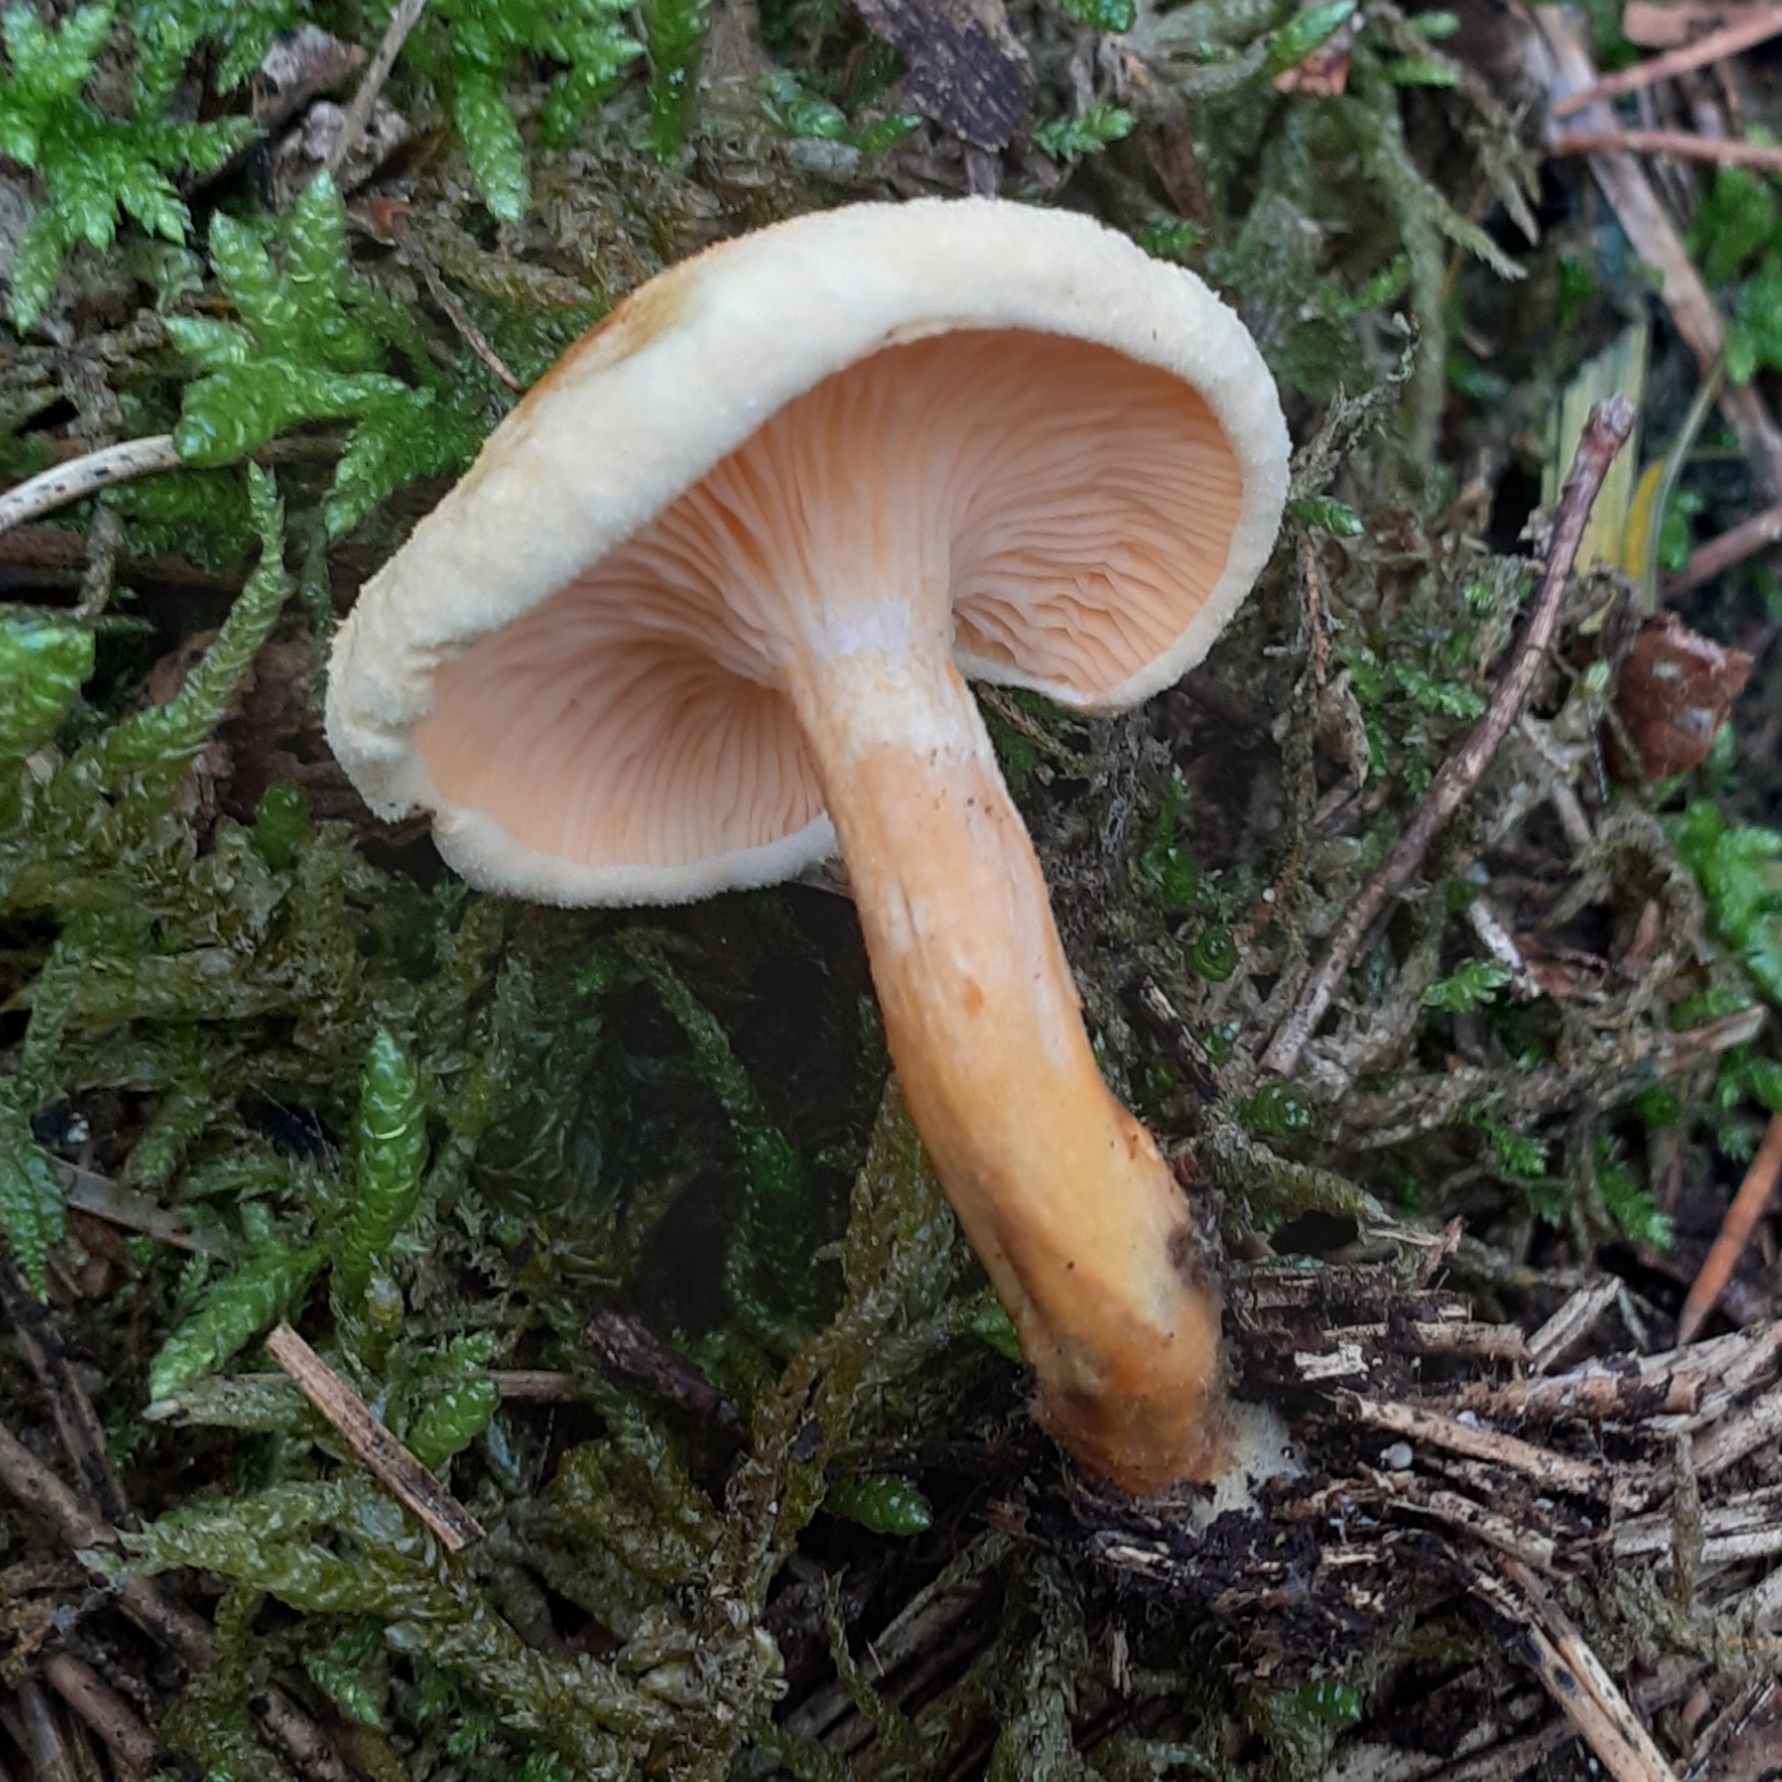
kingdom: Fungi
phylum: Basidiomycota
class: Agaricomycetes
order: Boletales
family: Hygrophoropsidaceae
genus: Hygrophoropsis
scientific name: Hygrophoropsis aurantiaca
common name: False chanterelle
